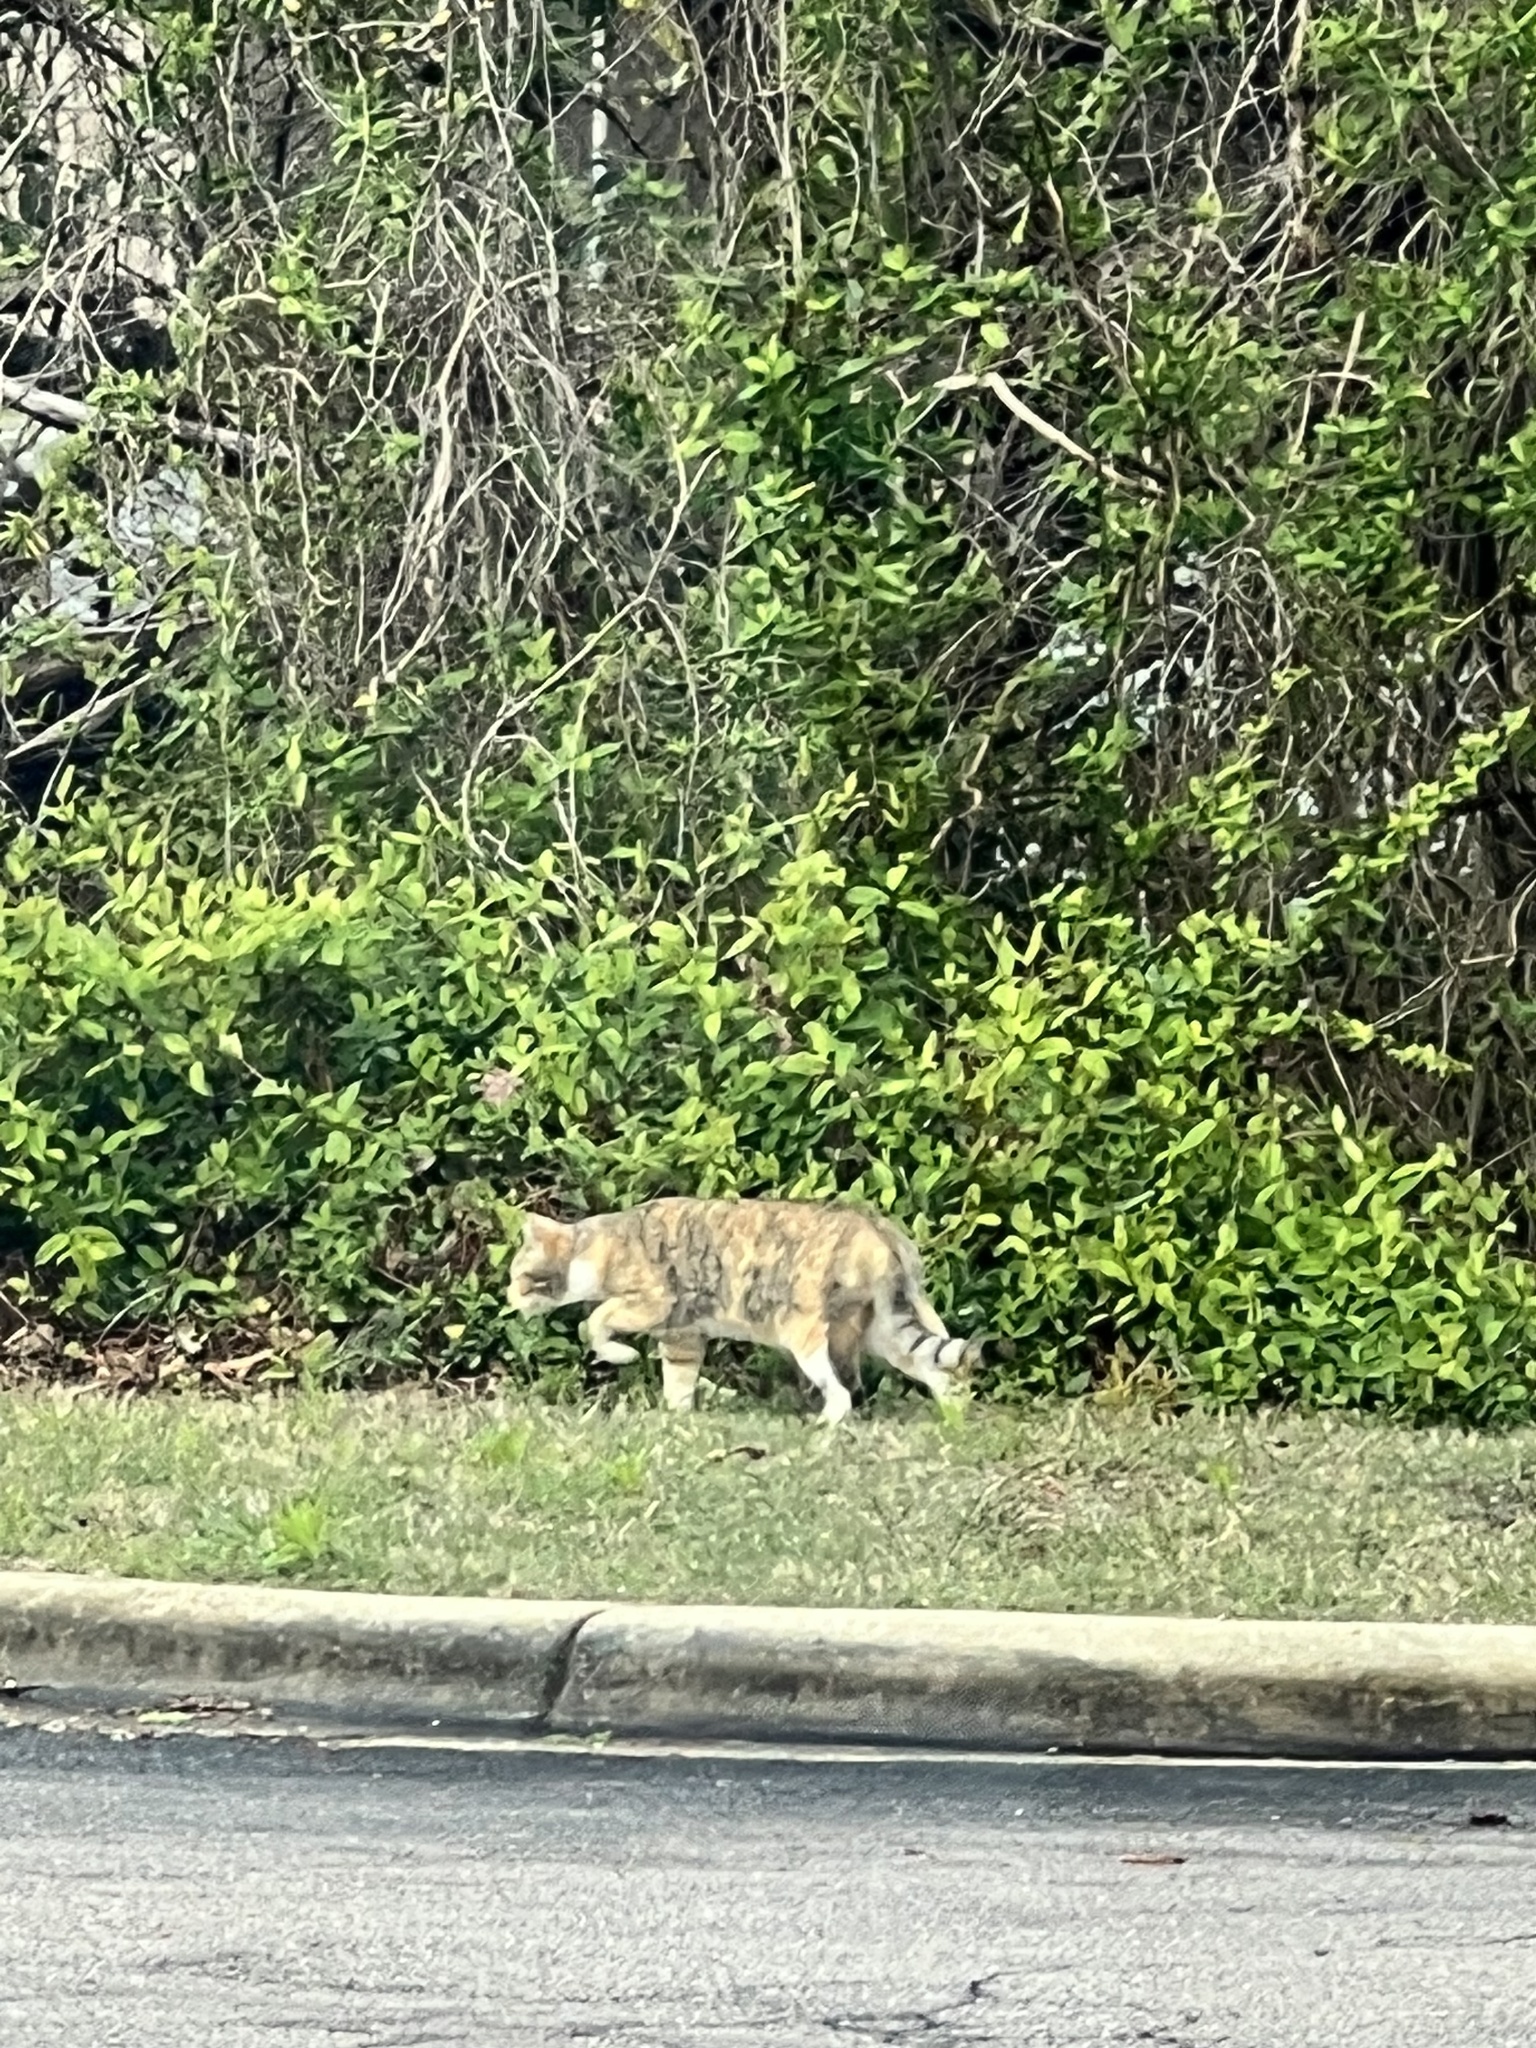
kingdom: Animalia
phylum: Chordata
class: Mammalia
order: Carnivora
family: Felidae
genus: Felis
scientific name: Felis catus
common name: Domestic cat
